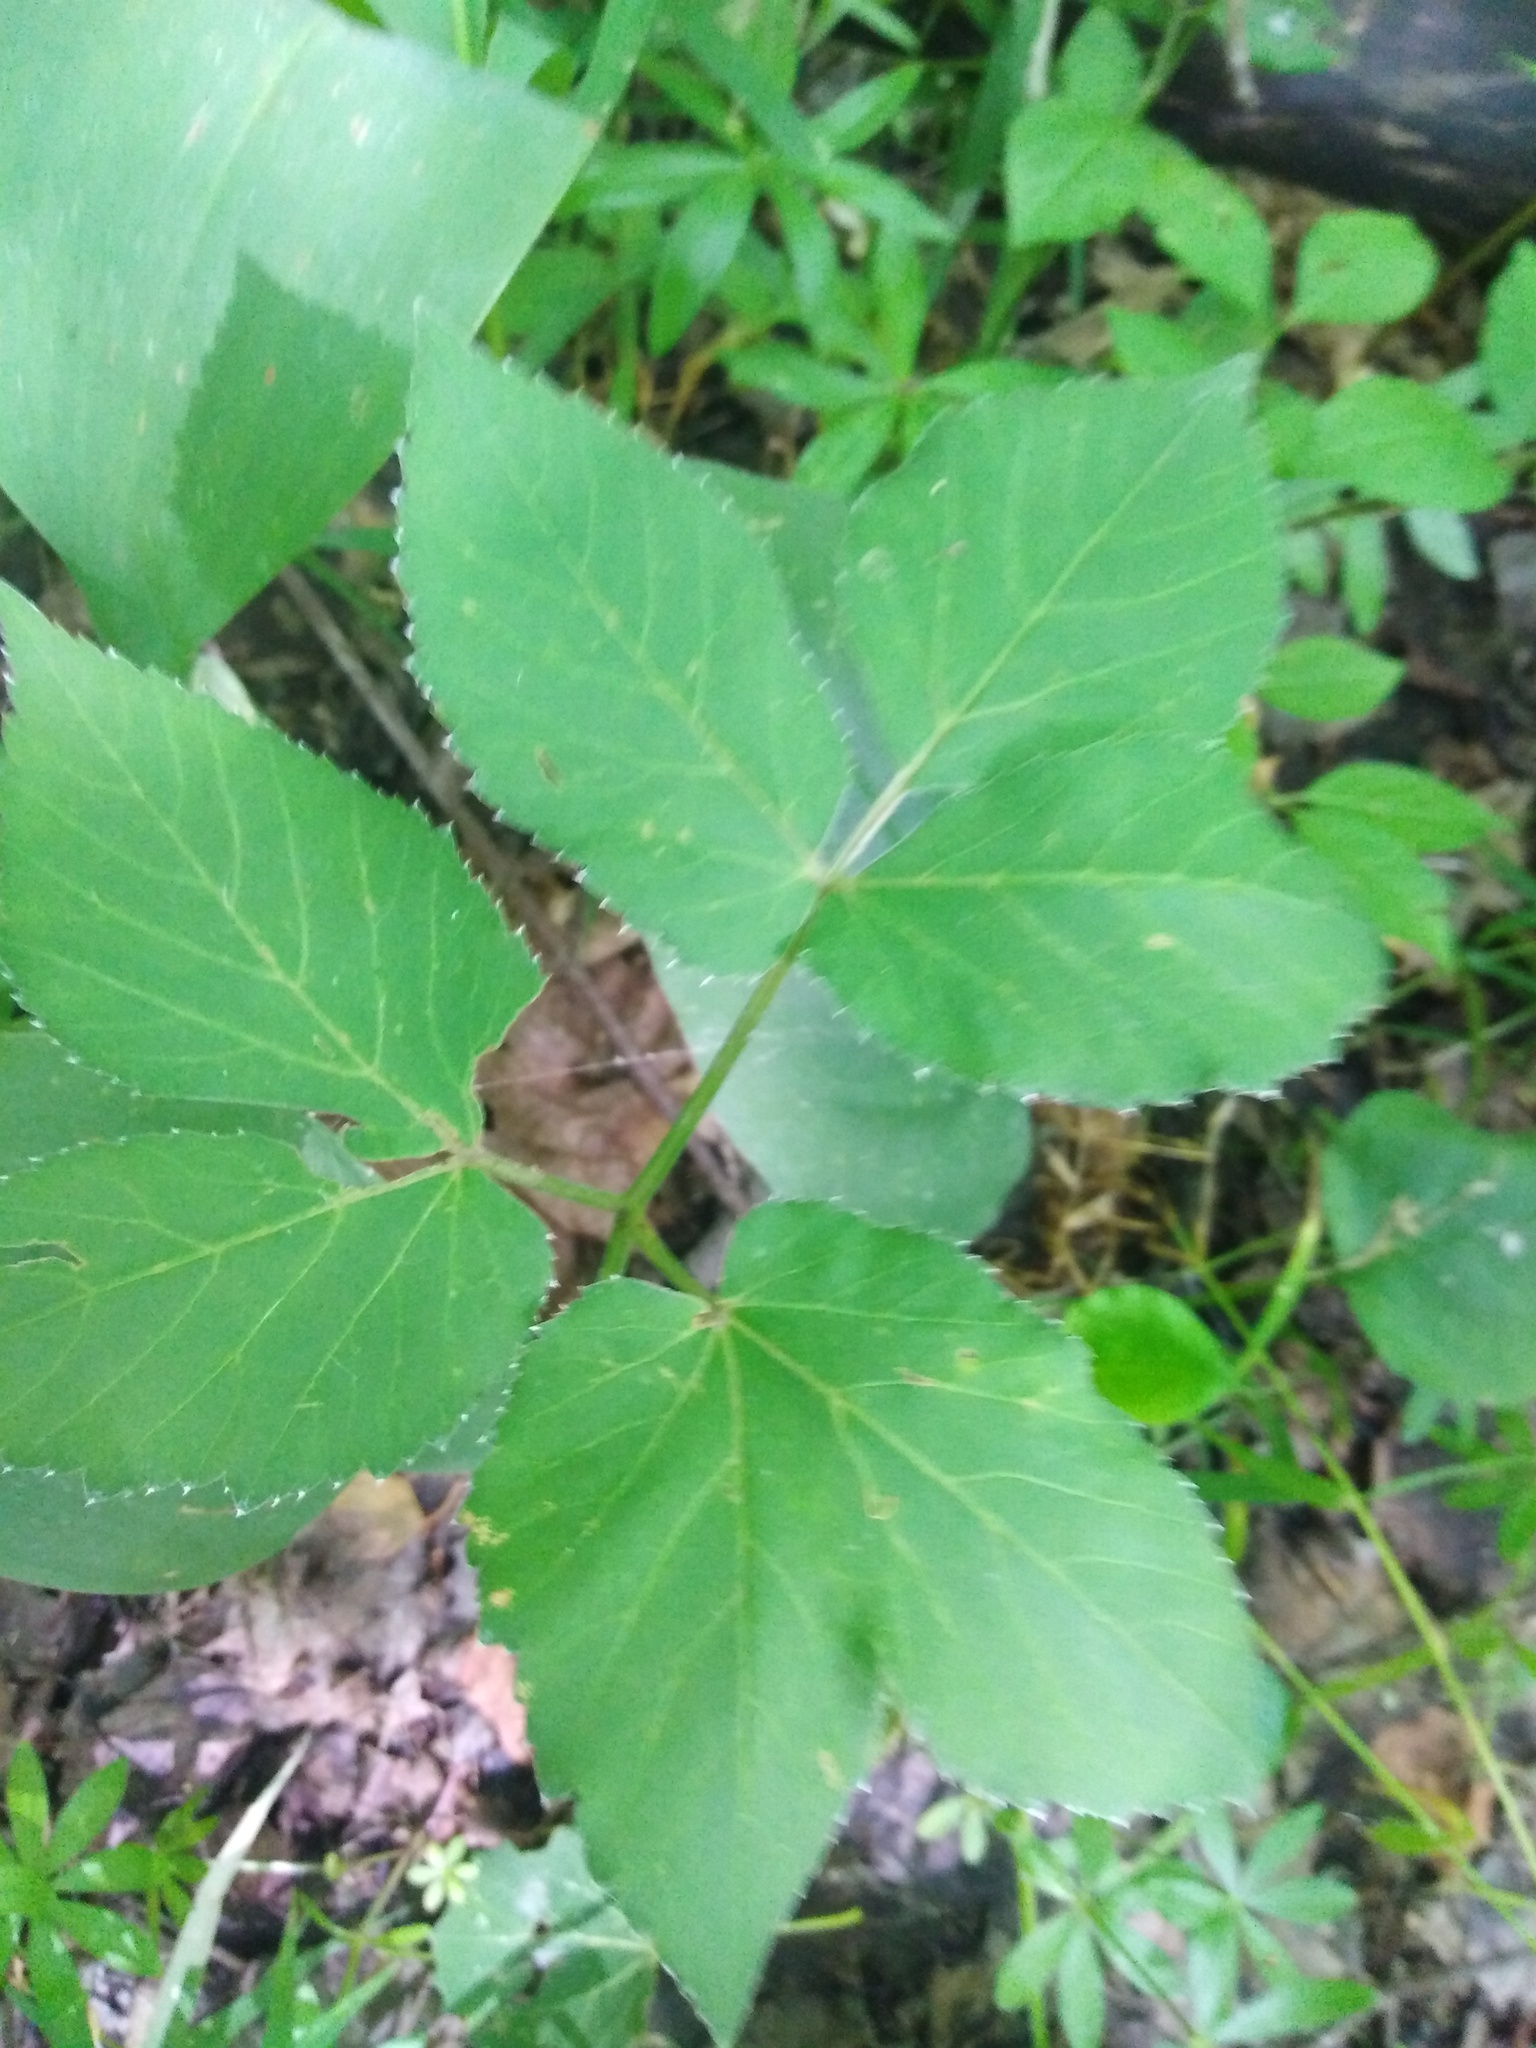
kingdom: Plantae
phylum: Tracheophyta
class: Magnoliopsida
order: Apiales
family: Apiaceae
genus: Aegopodium
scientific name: Aegopodium podagraria
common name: Ground-elder
